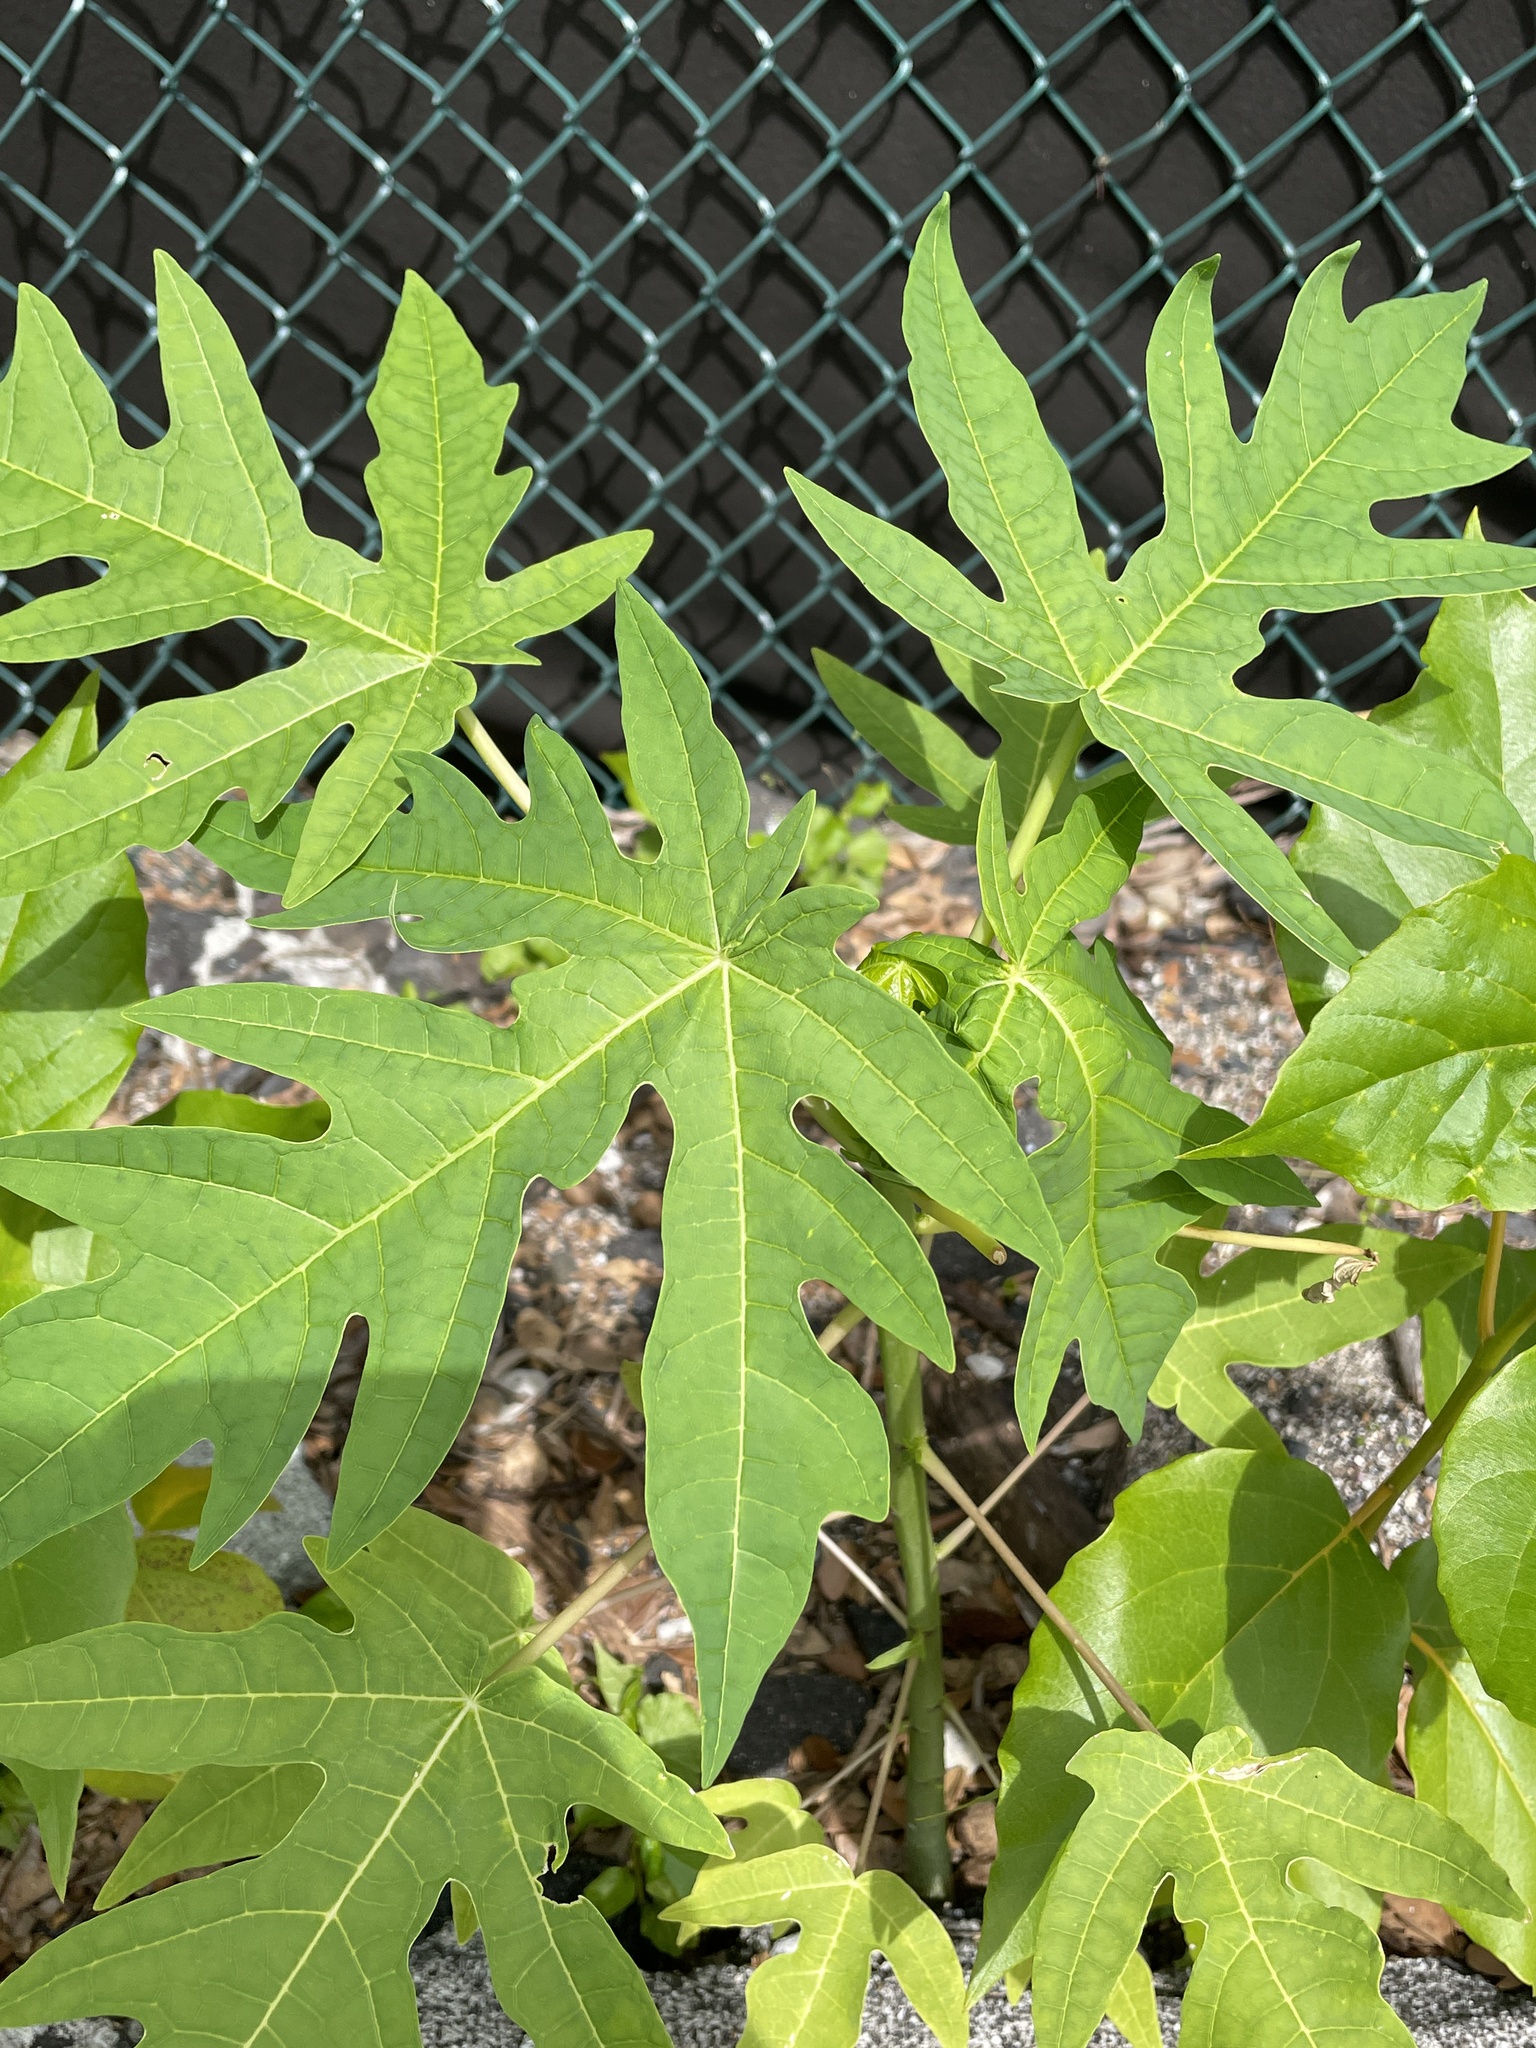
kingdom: Plantae
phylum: Tracheophyta
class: Magnoliopsida
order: Brassicales
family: Caricaceae
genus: Carica
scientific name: Carica papaya
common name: Papaya
